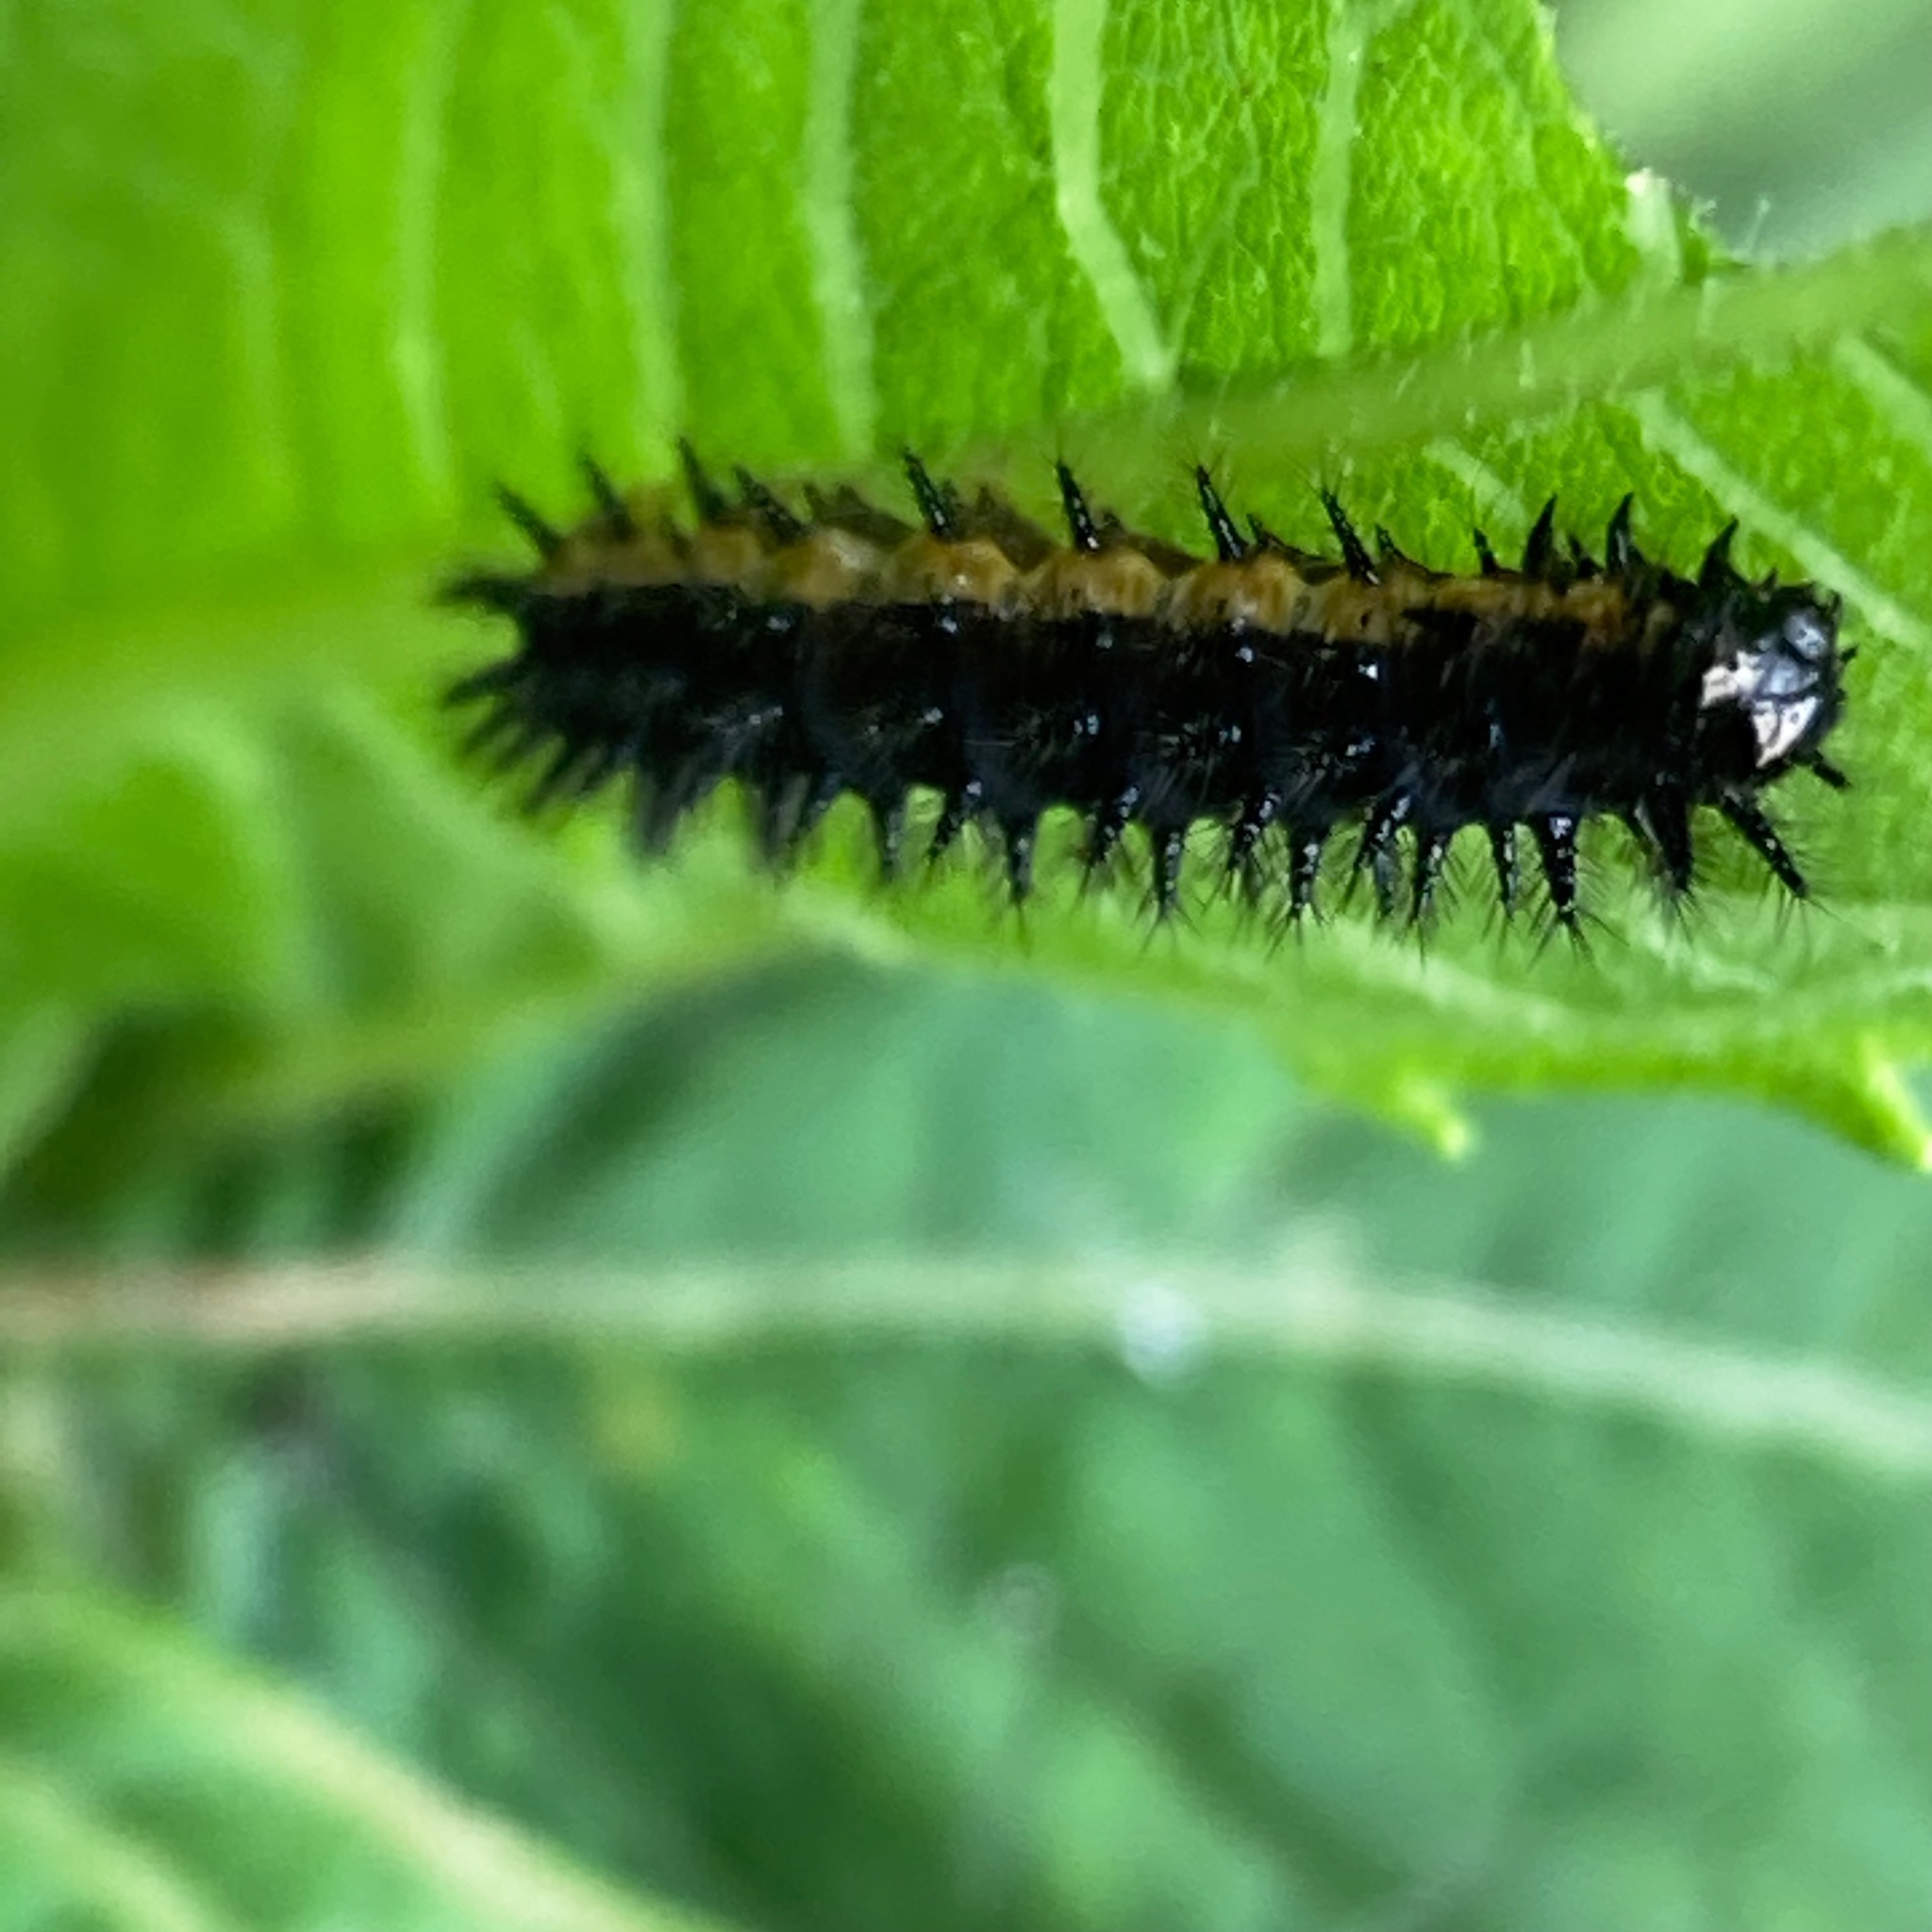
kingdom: Animalia
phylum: Arthropoda
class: Insecta
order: Lepidoptera
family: Nymphalidae
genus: Chlosyne
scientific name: Chlosyne nycteis
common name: Silvery checkerspot
